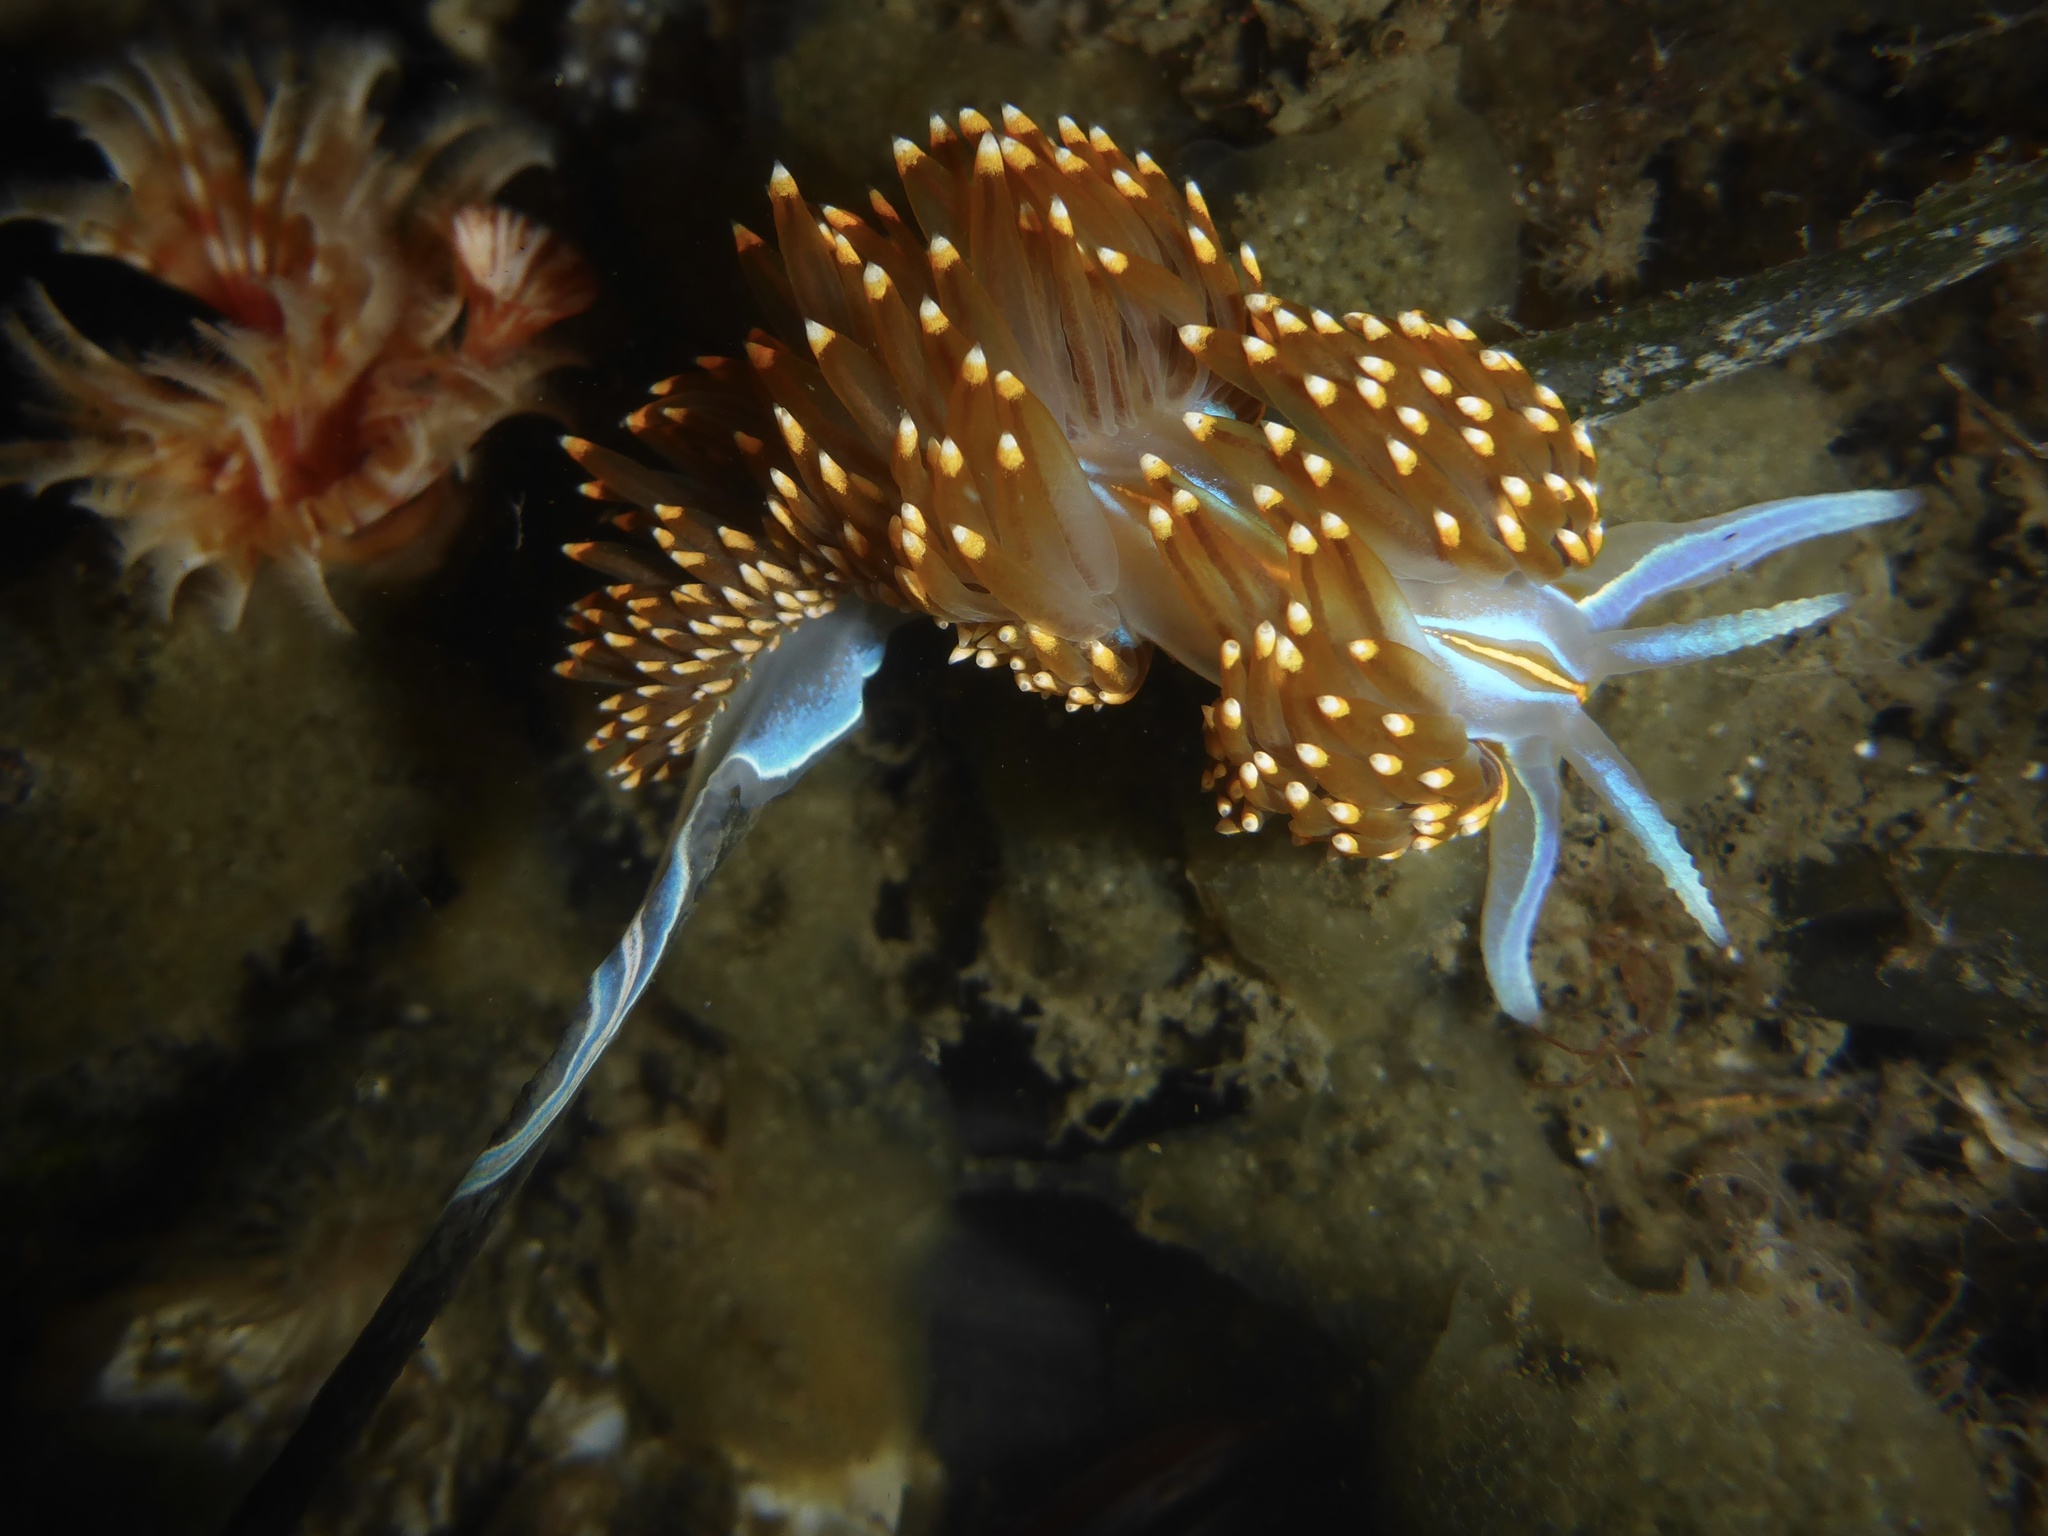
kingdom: Animalia
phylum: Mollusca
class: Gastropoda
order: Nudibranchia
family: Myrrhinidae
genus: Hermissenda
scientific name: Hermissenda opalescens
